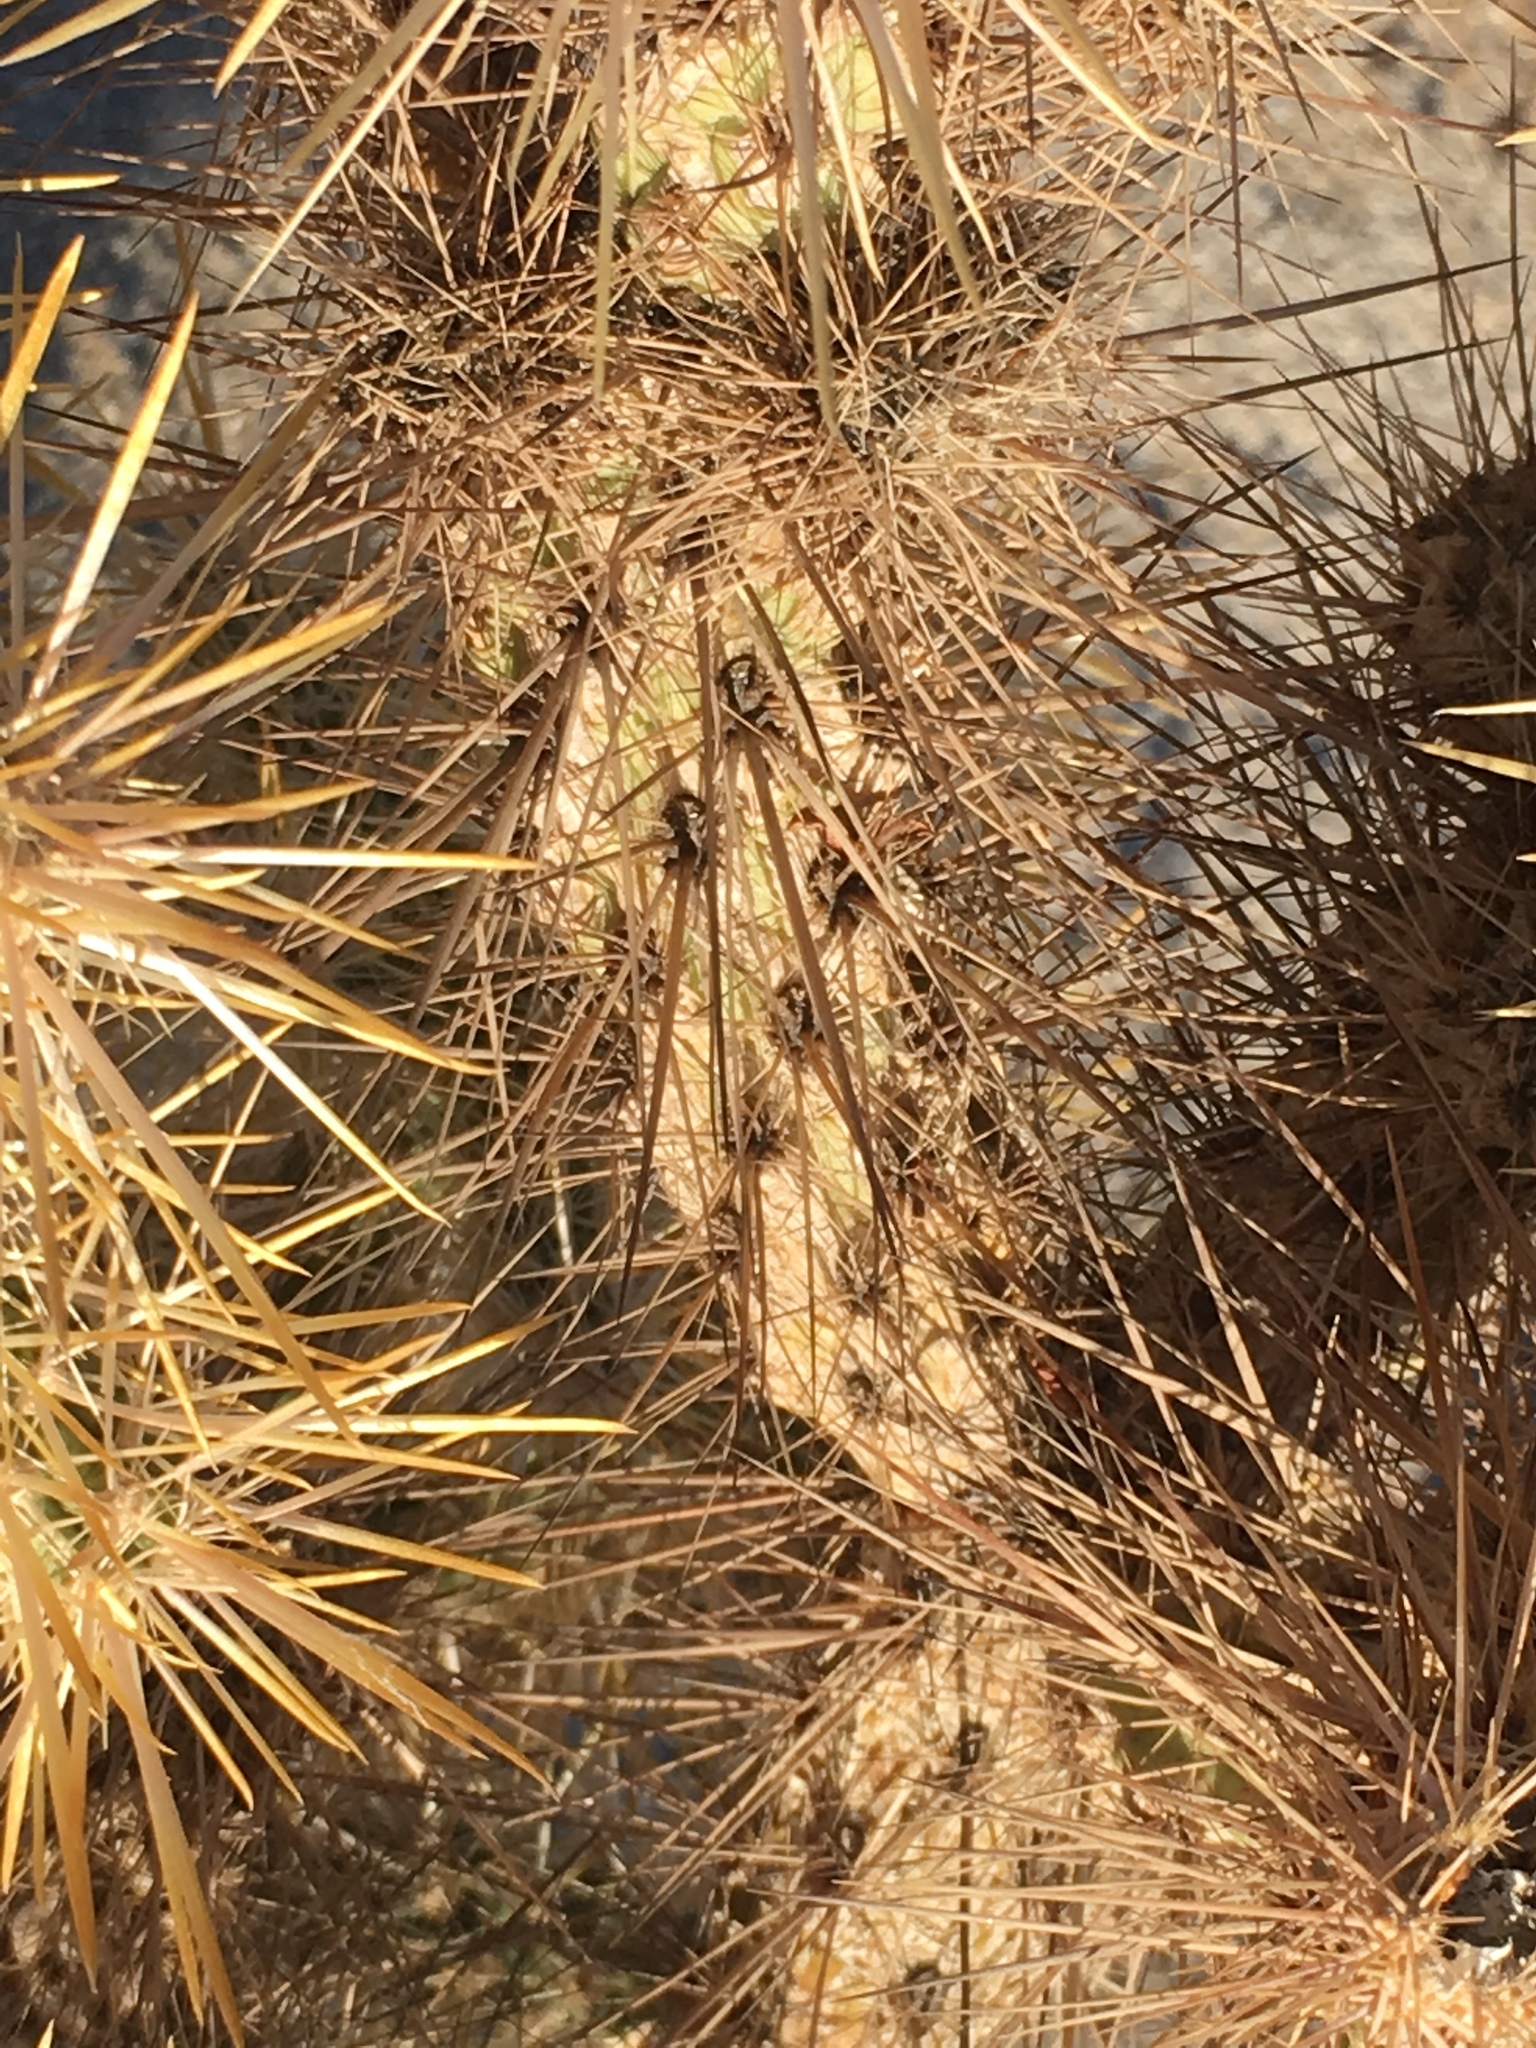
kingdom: Plantae
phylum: Tracheophyta
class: Magnoliopsida
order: Caryophyllales
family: Cactaceae
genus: Cylindropuntia
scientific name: Cylindropuntia echinocarpa
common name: Ground cholla
